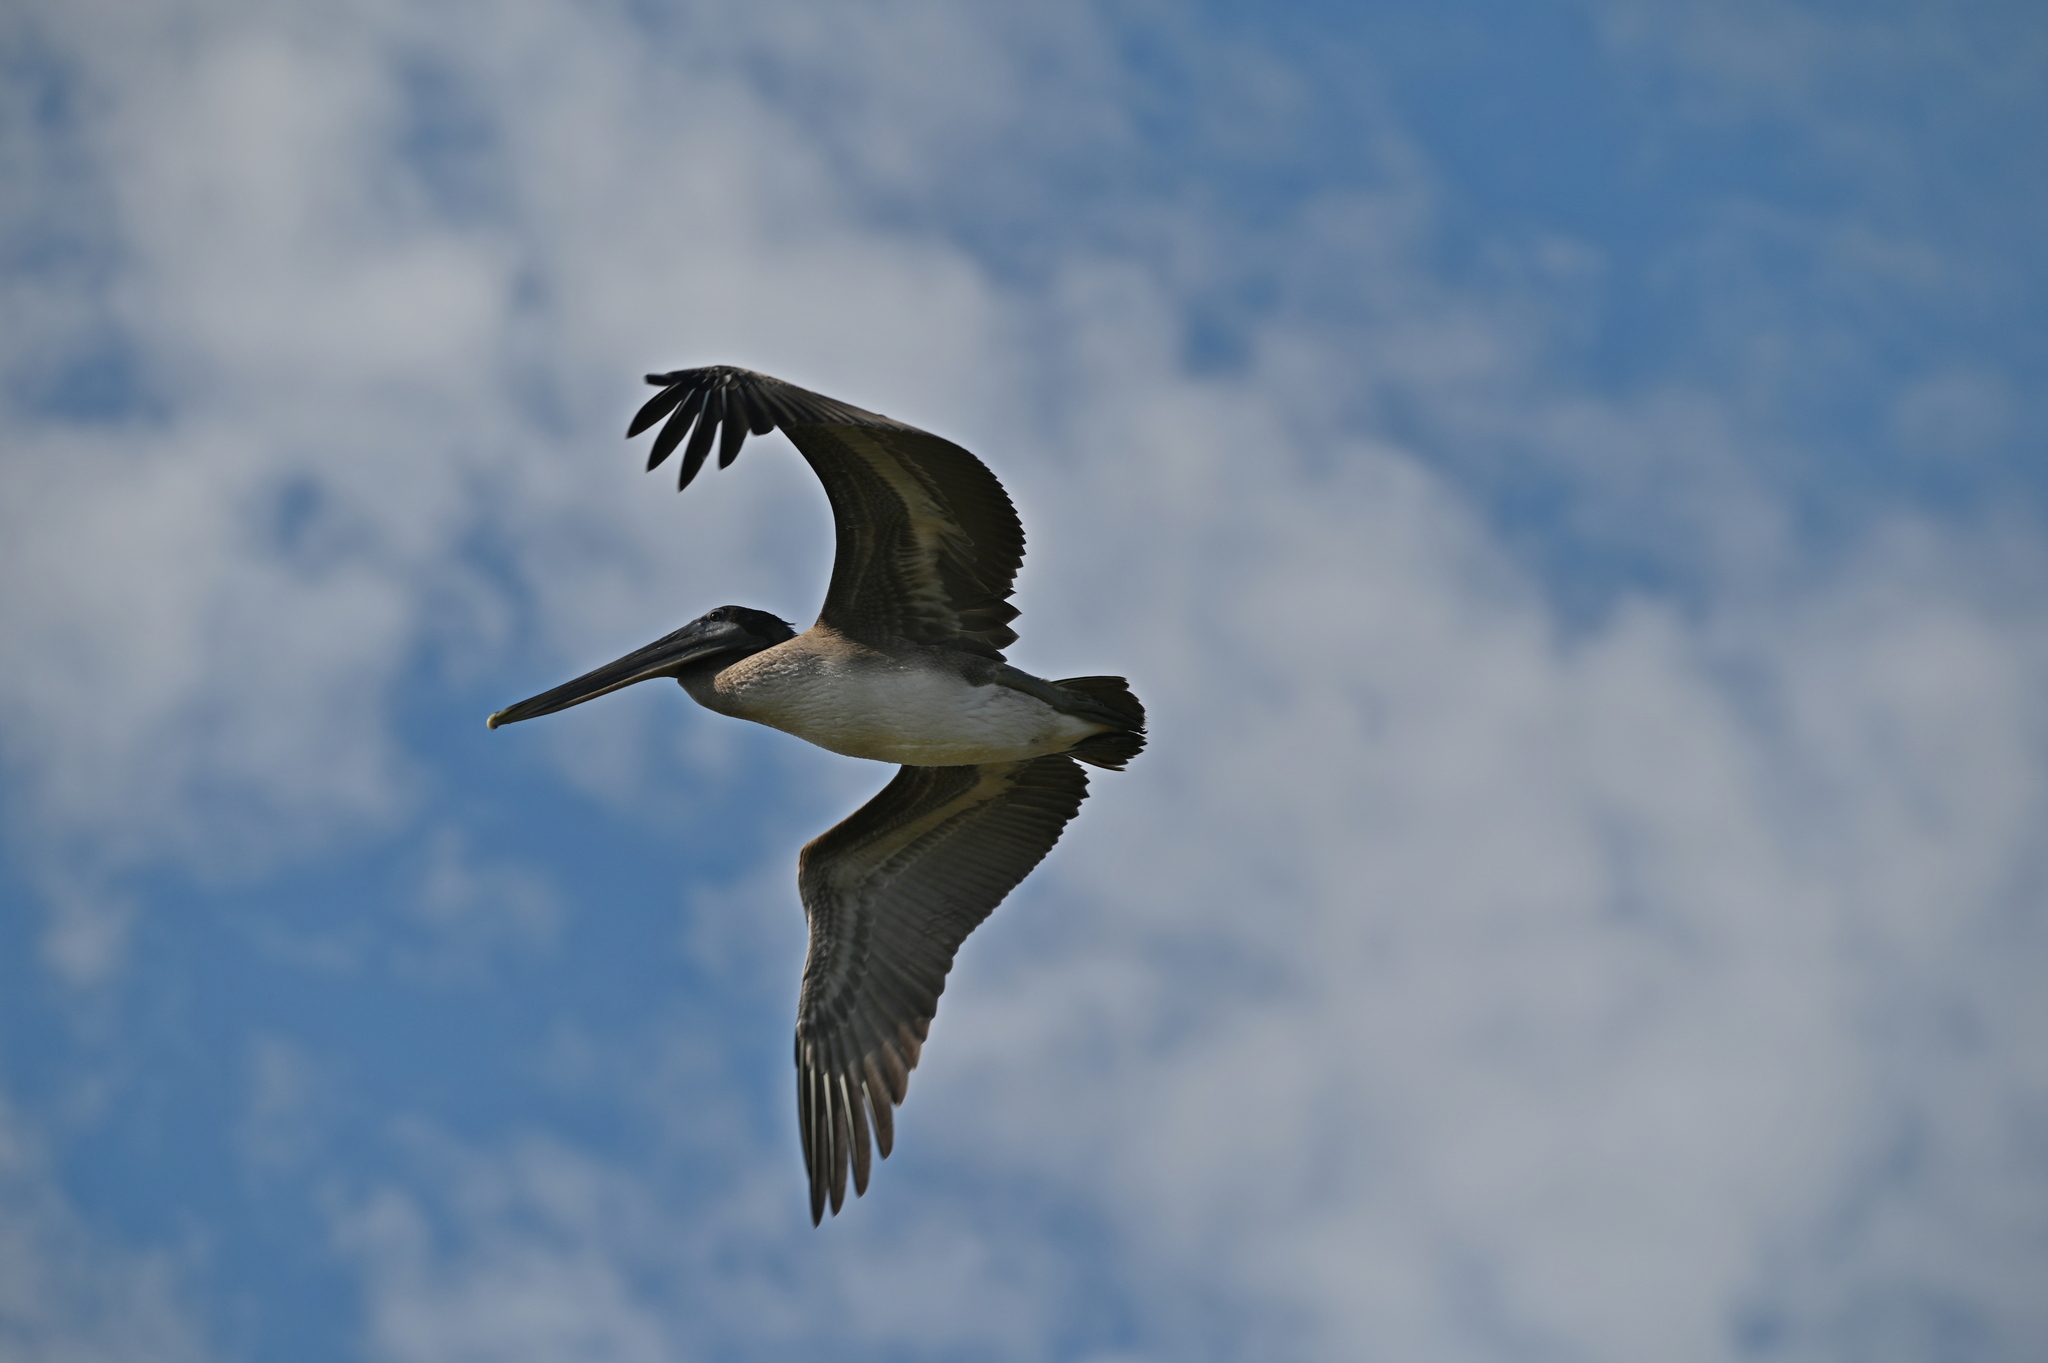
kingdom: Animalia
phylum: Chordata
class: Aves
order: Pelecaniformes
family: Pelecanidae
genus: Pelecanus
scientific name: Pelecanus occidentalis
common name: Brown pelican
